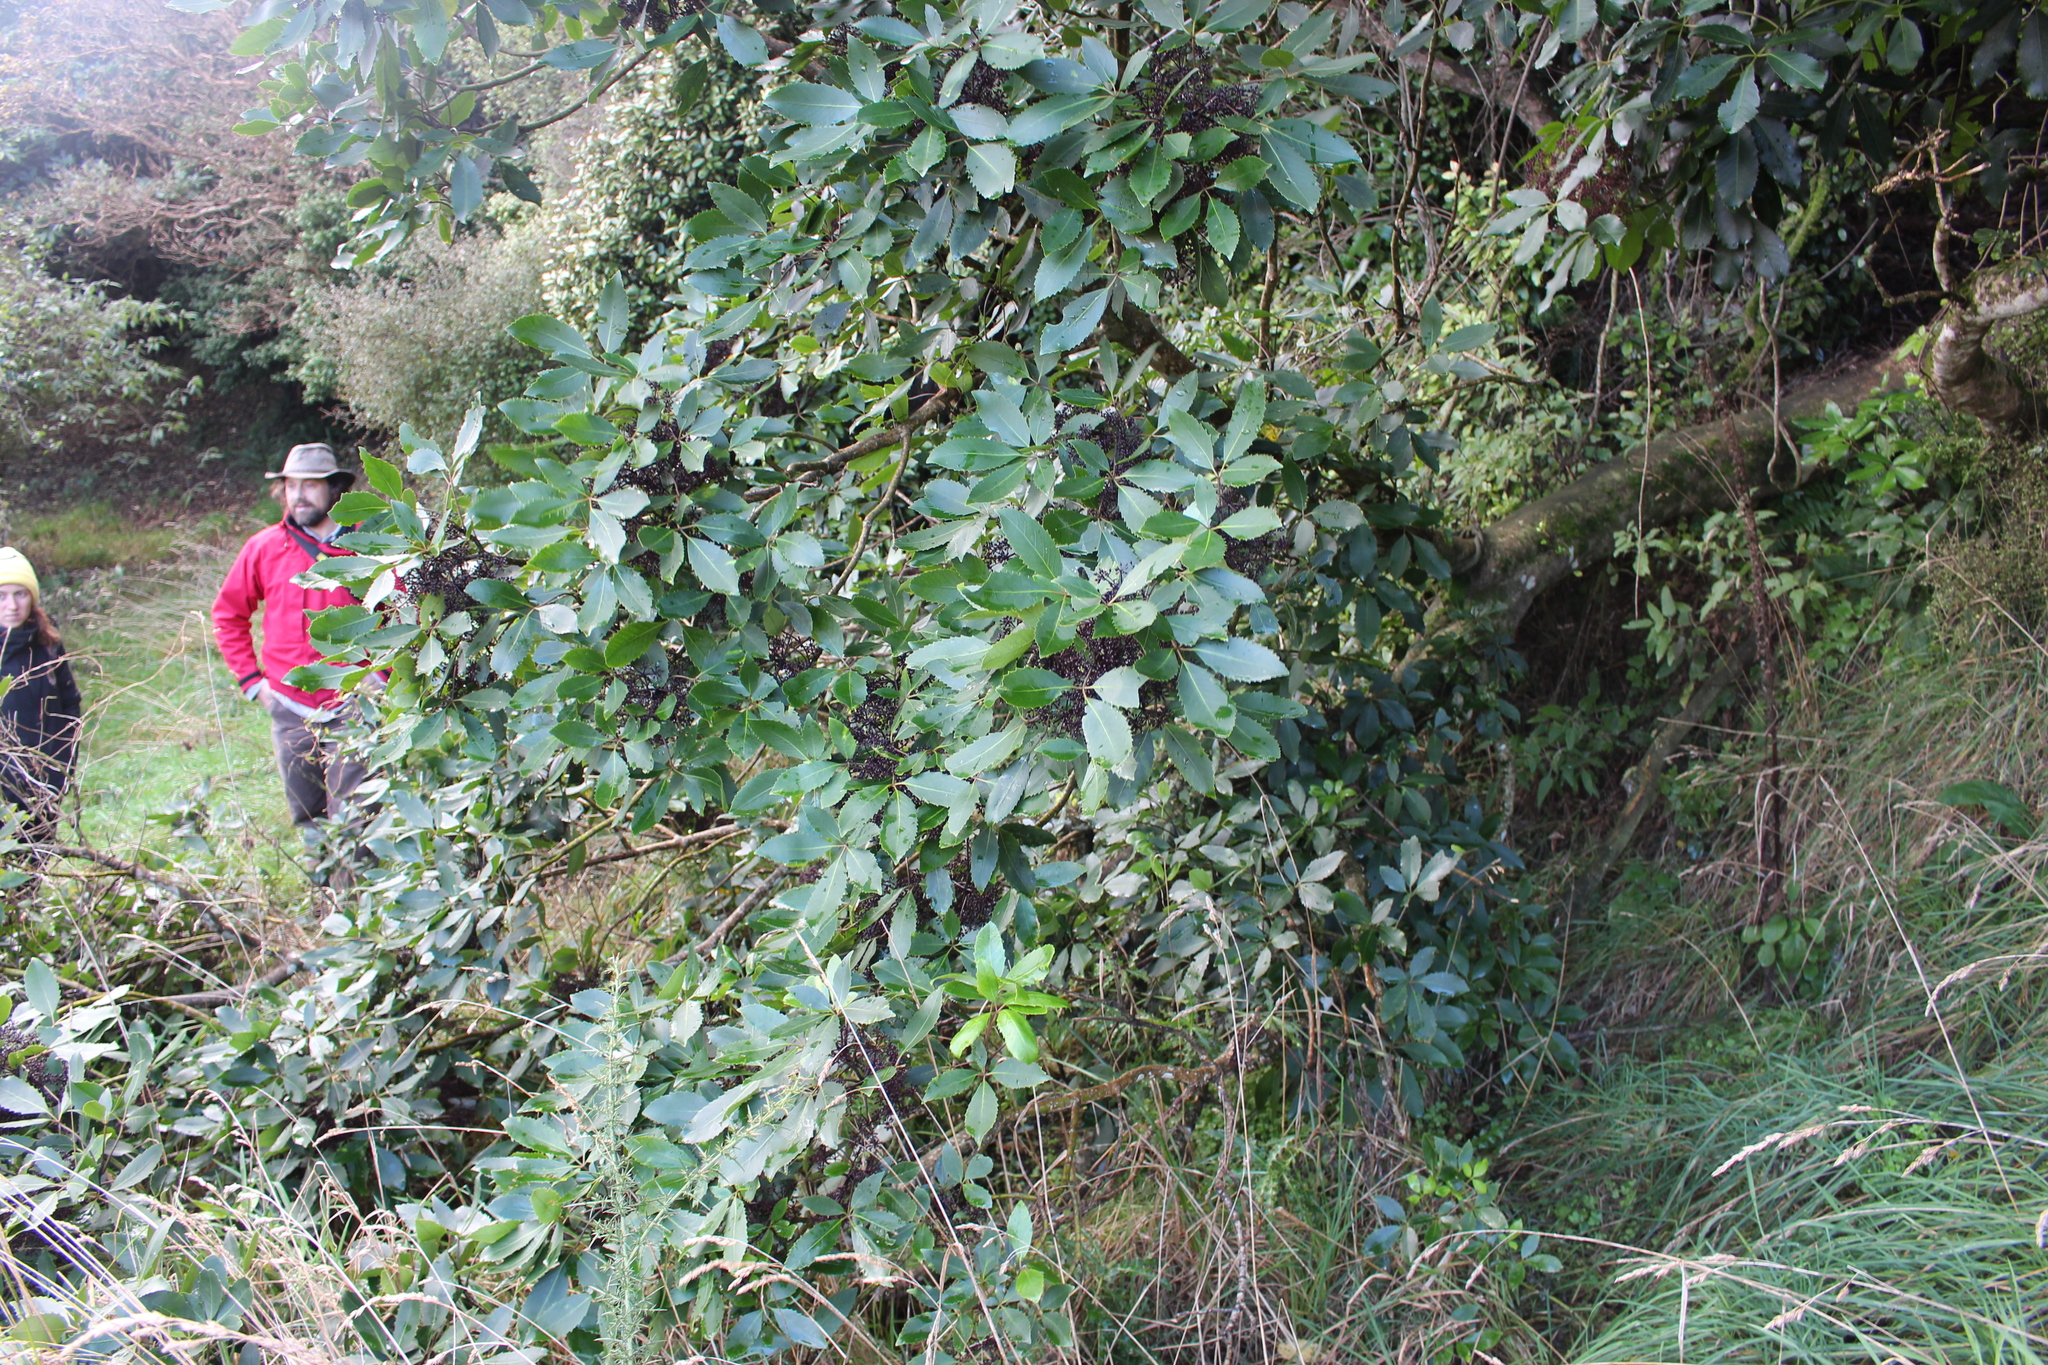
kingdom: Plantae
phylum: Tracheophyta
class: Magnoliopsida
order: Apiales
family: Araliaceae
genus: Neopanax
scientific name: Neopanax arboreus
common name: Five-fingers
